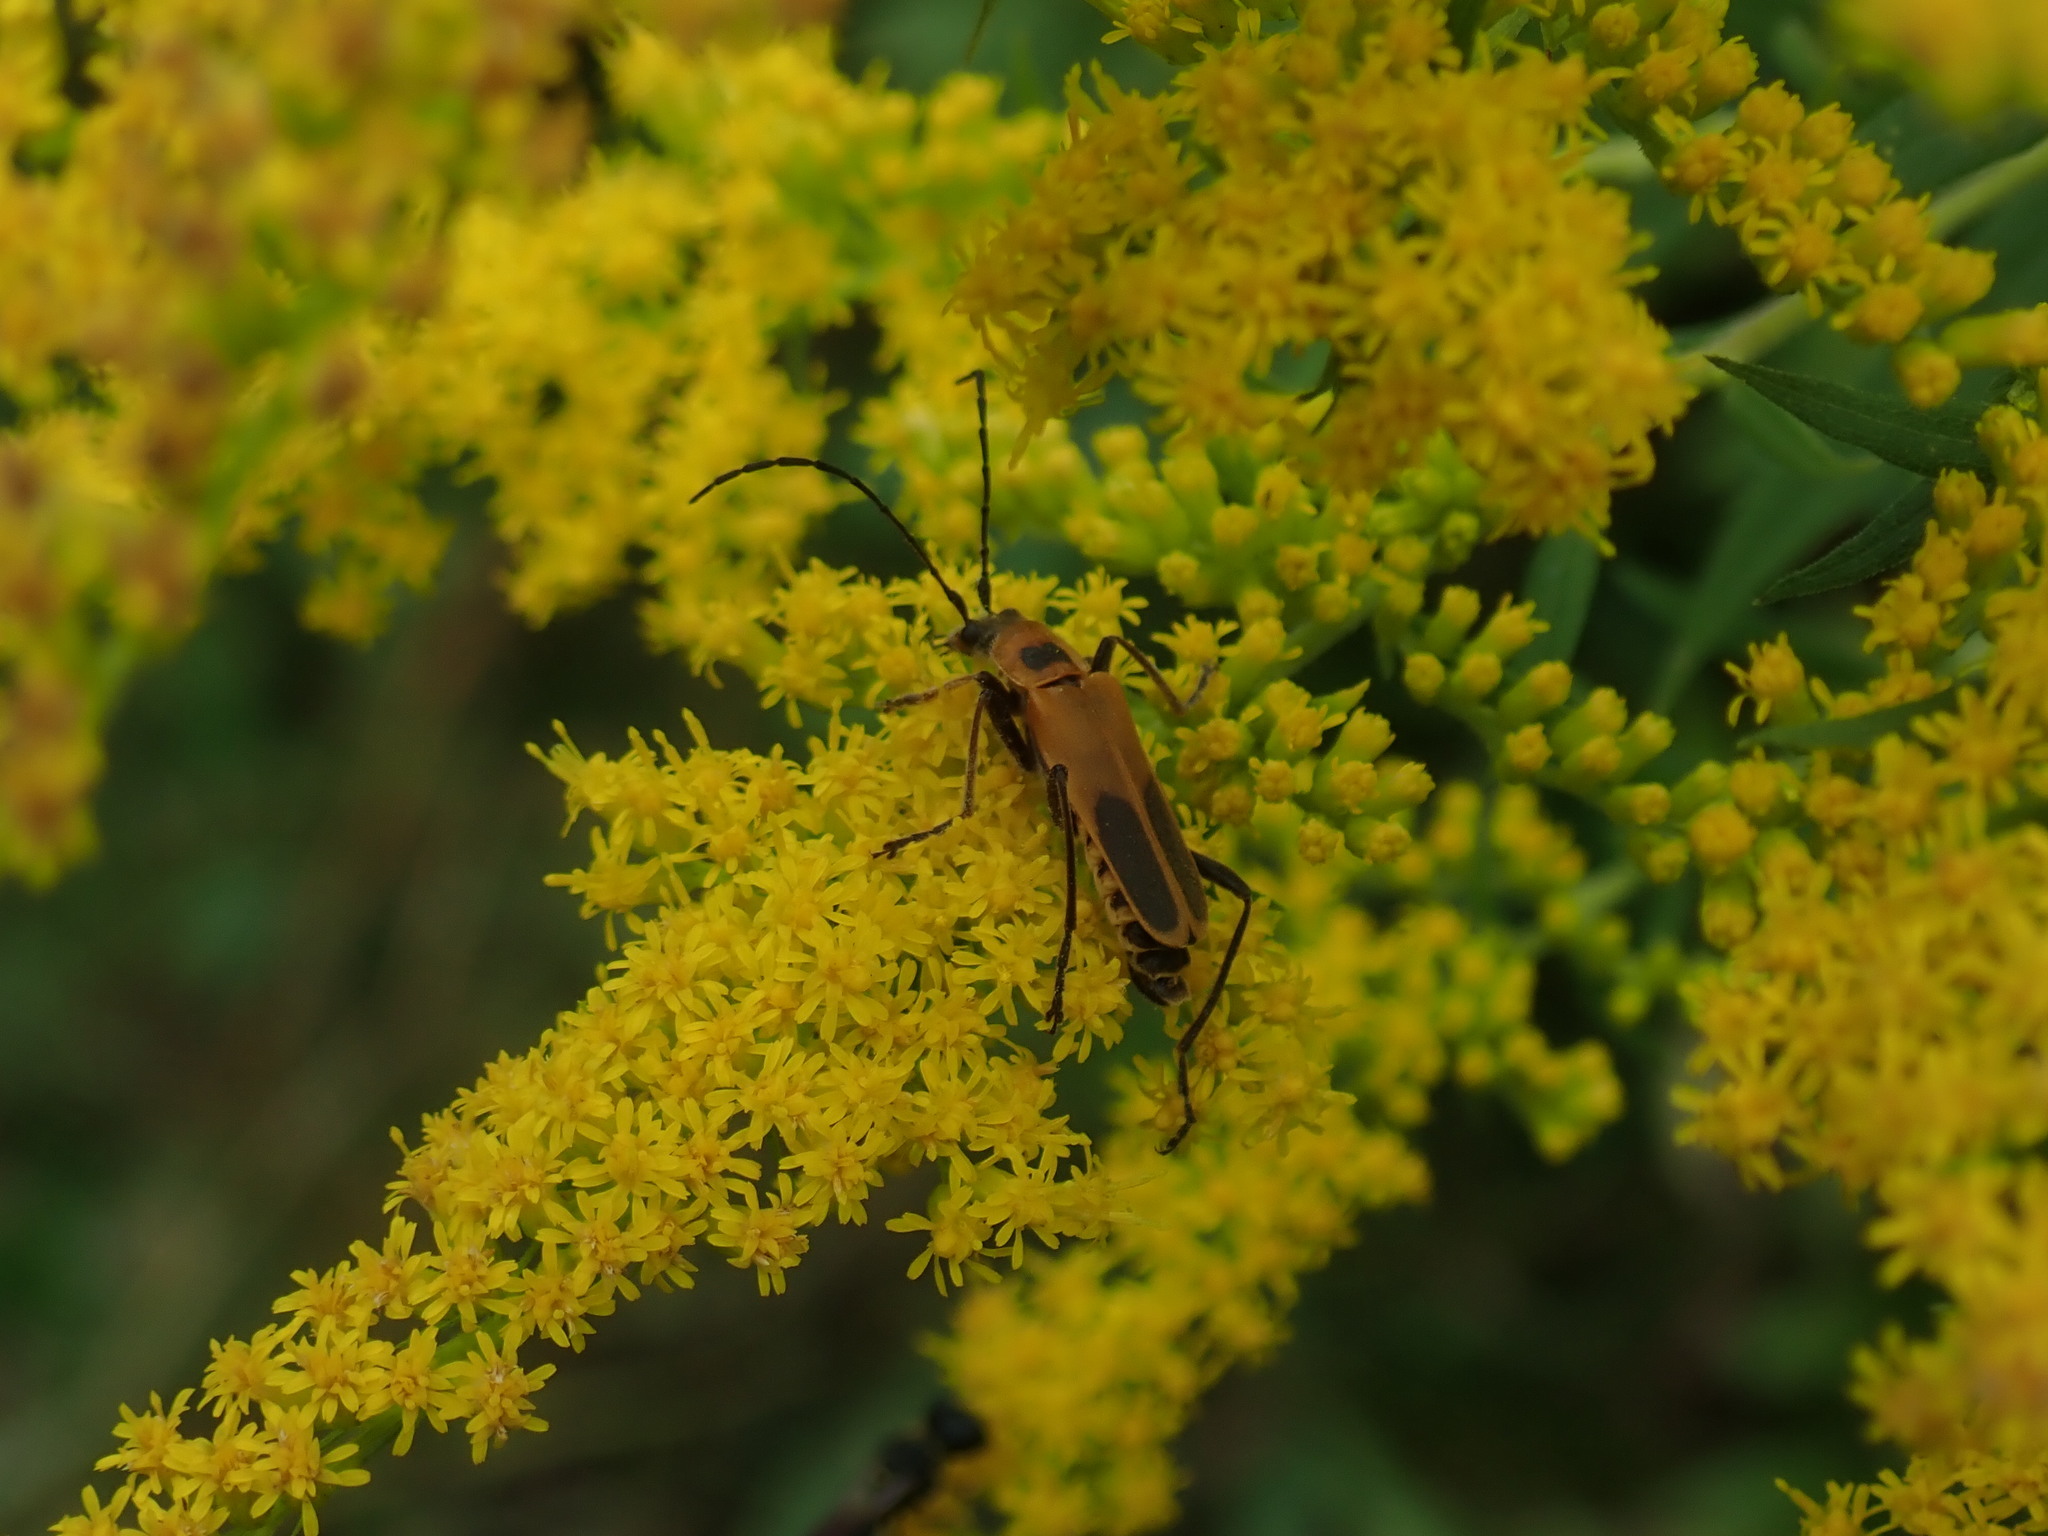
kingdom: Animalia
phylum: Arthropoda
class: Insecta
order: Coleoptera
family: Cantharidae
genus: Chauliognathus
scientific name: Chauliognathus pensylvanicus
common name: Goldenrod soldier beetle
